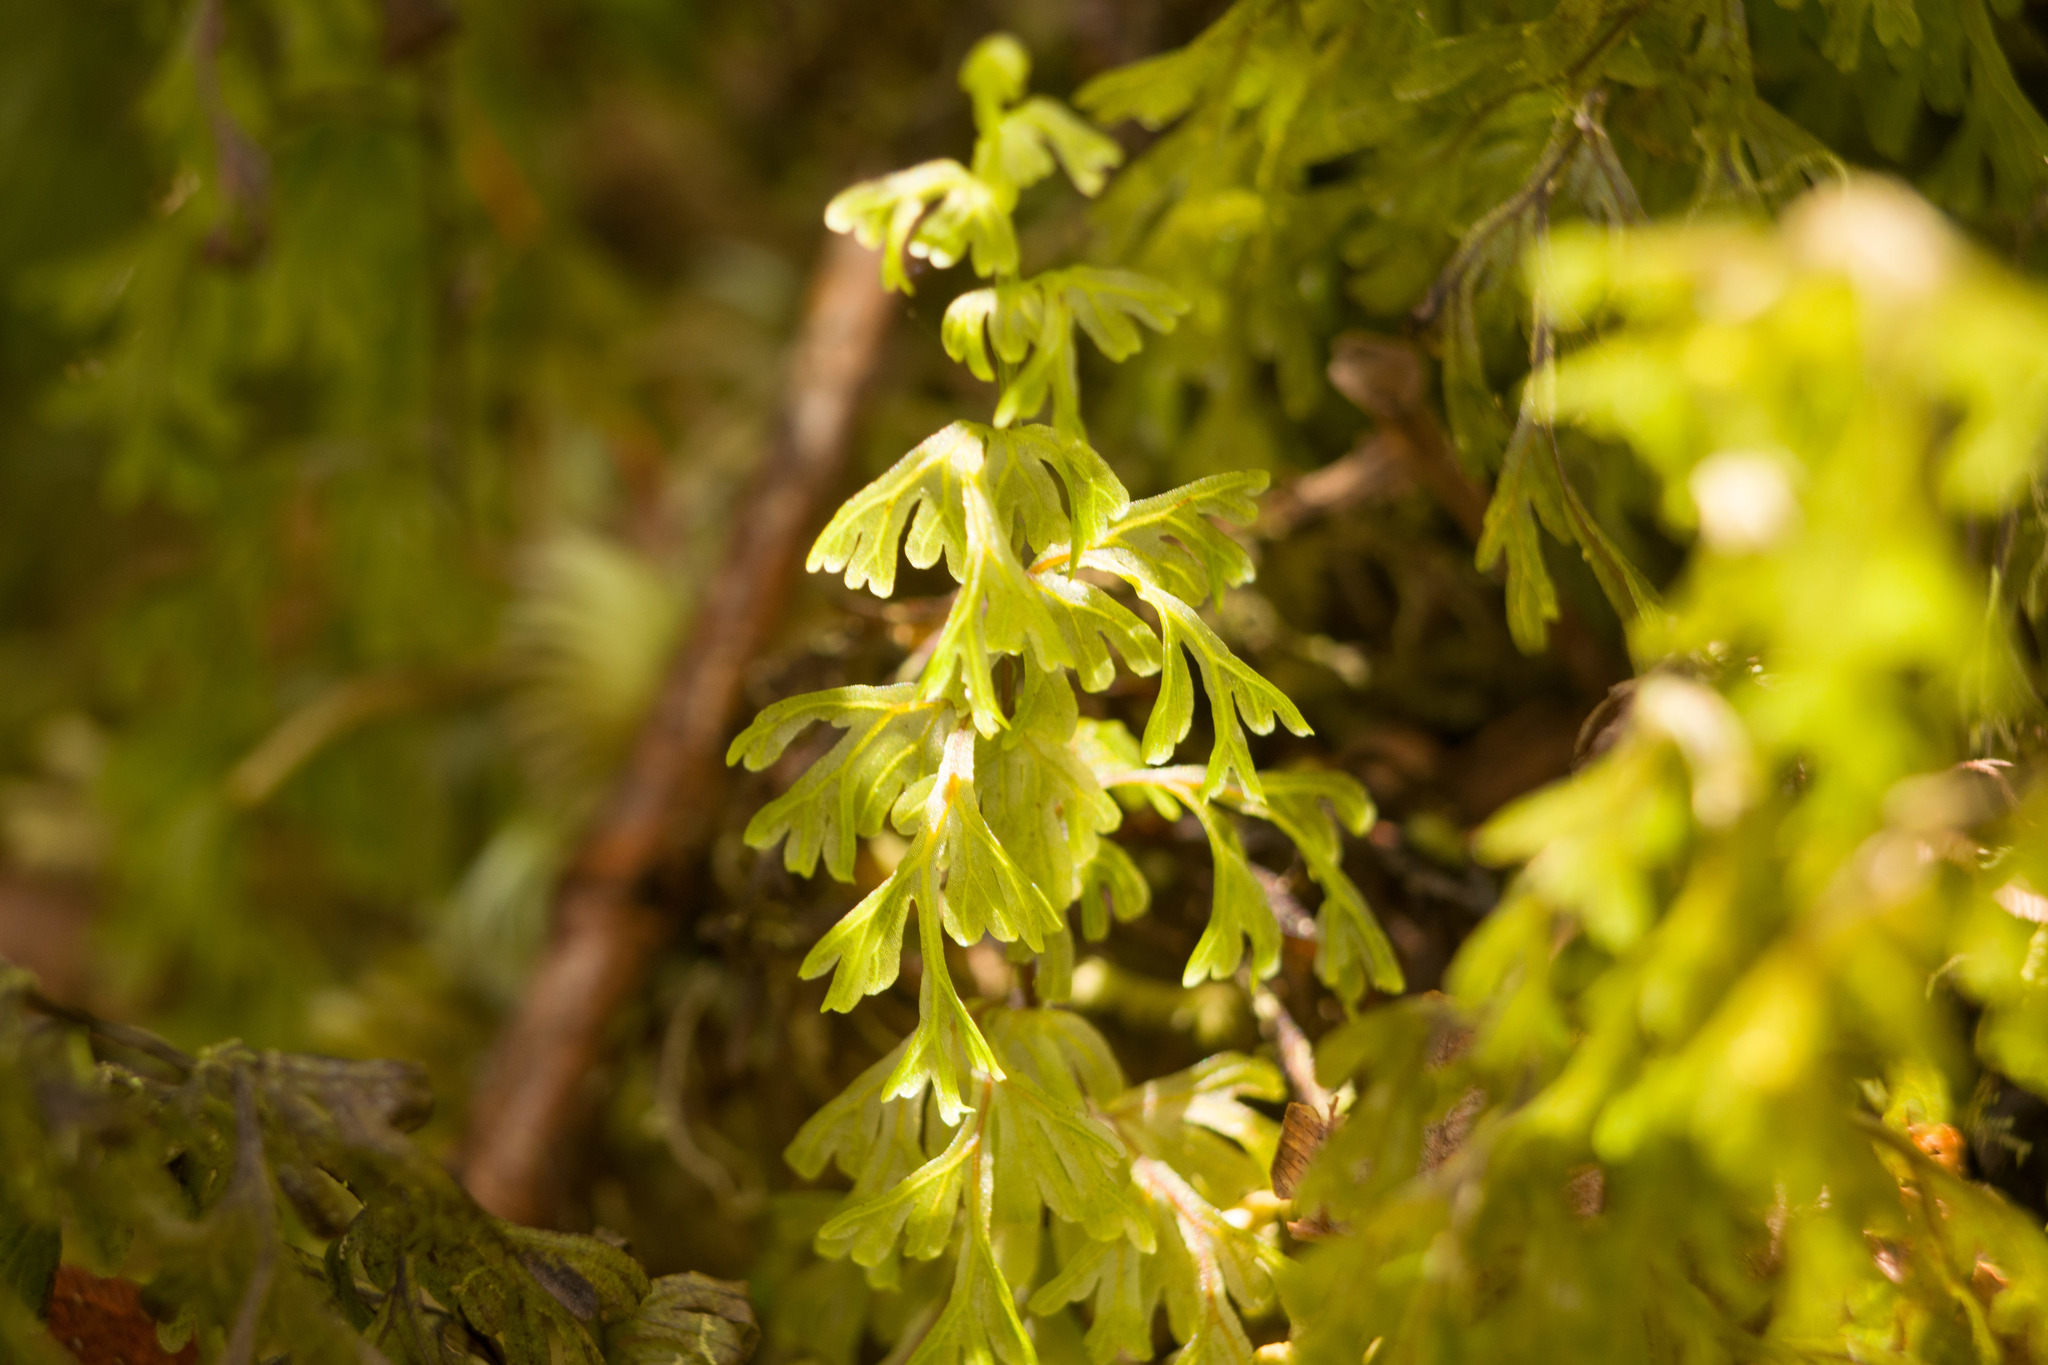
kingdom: Plantae
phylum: Tracheophyta
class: Polypodiopsida
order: Hymenophyllales
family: Hymenophyllaceae
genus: Hymenophyllum
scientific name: Hymenophyllum recurvum
